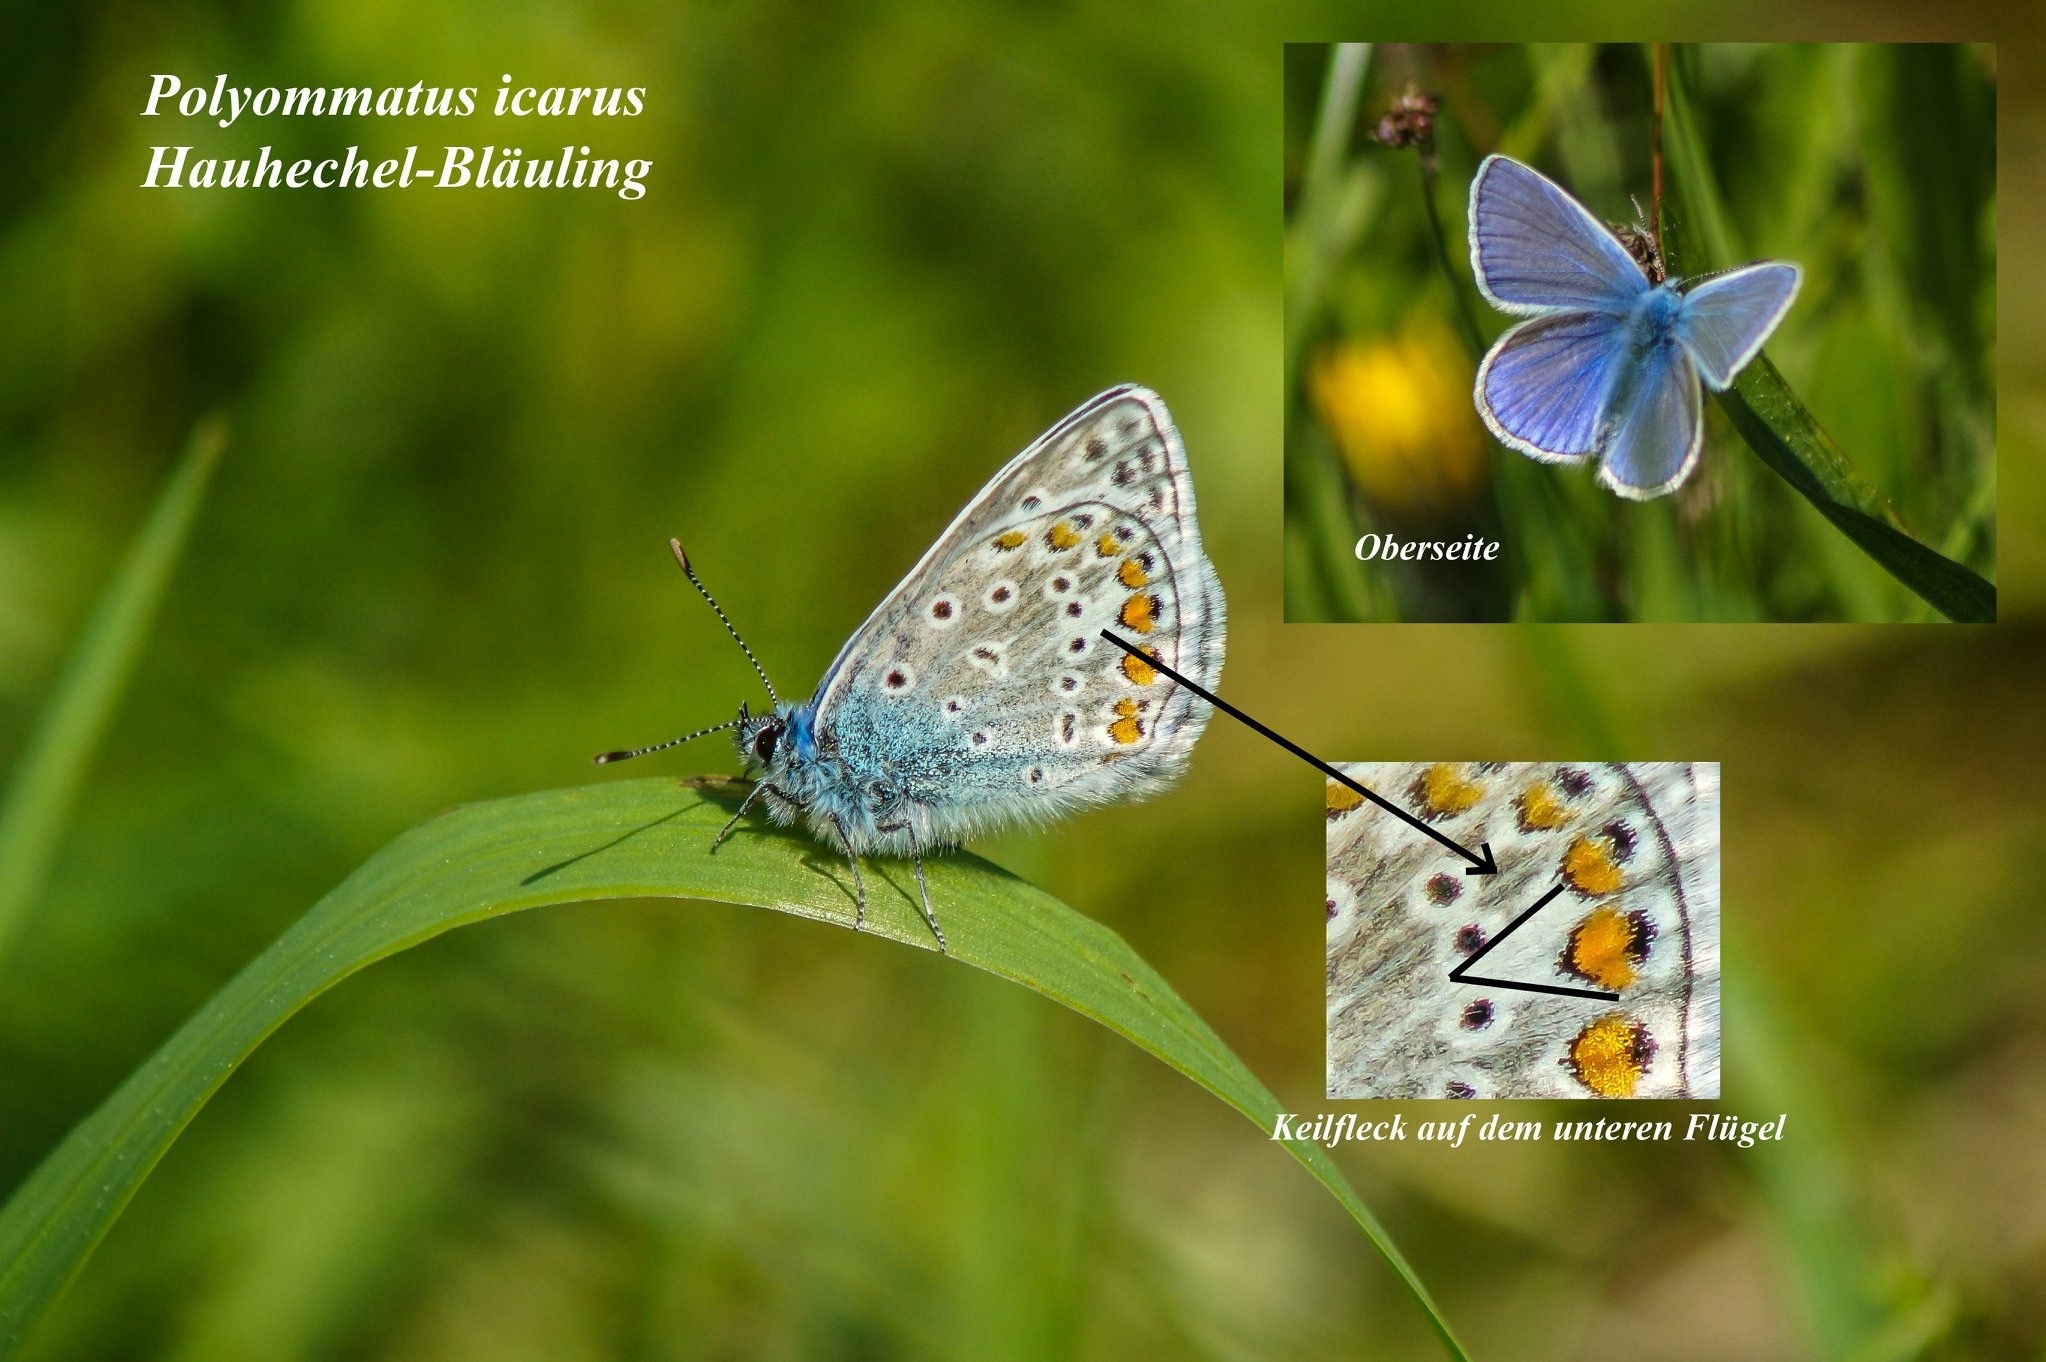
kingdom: Animalia
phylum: Arthropoda
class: Insecta
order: Lepidoptera
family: Lycaenidae
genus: Polyommatus
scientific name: Polyommatus icarus
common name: Common blue
